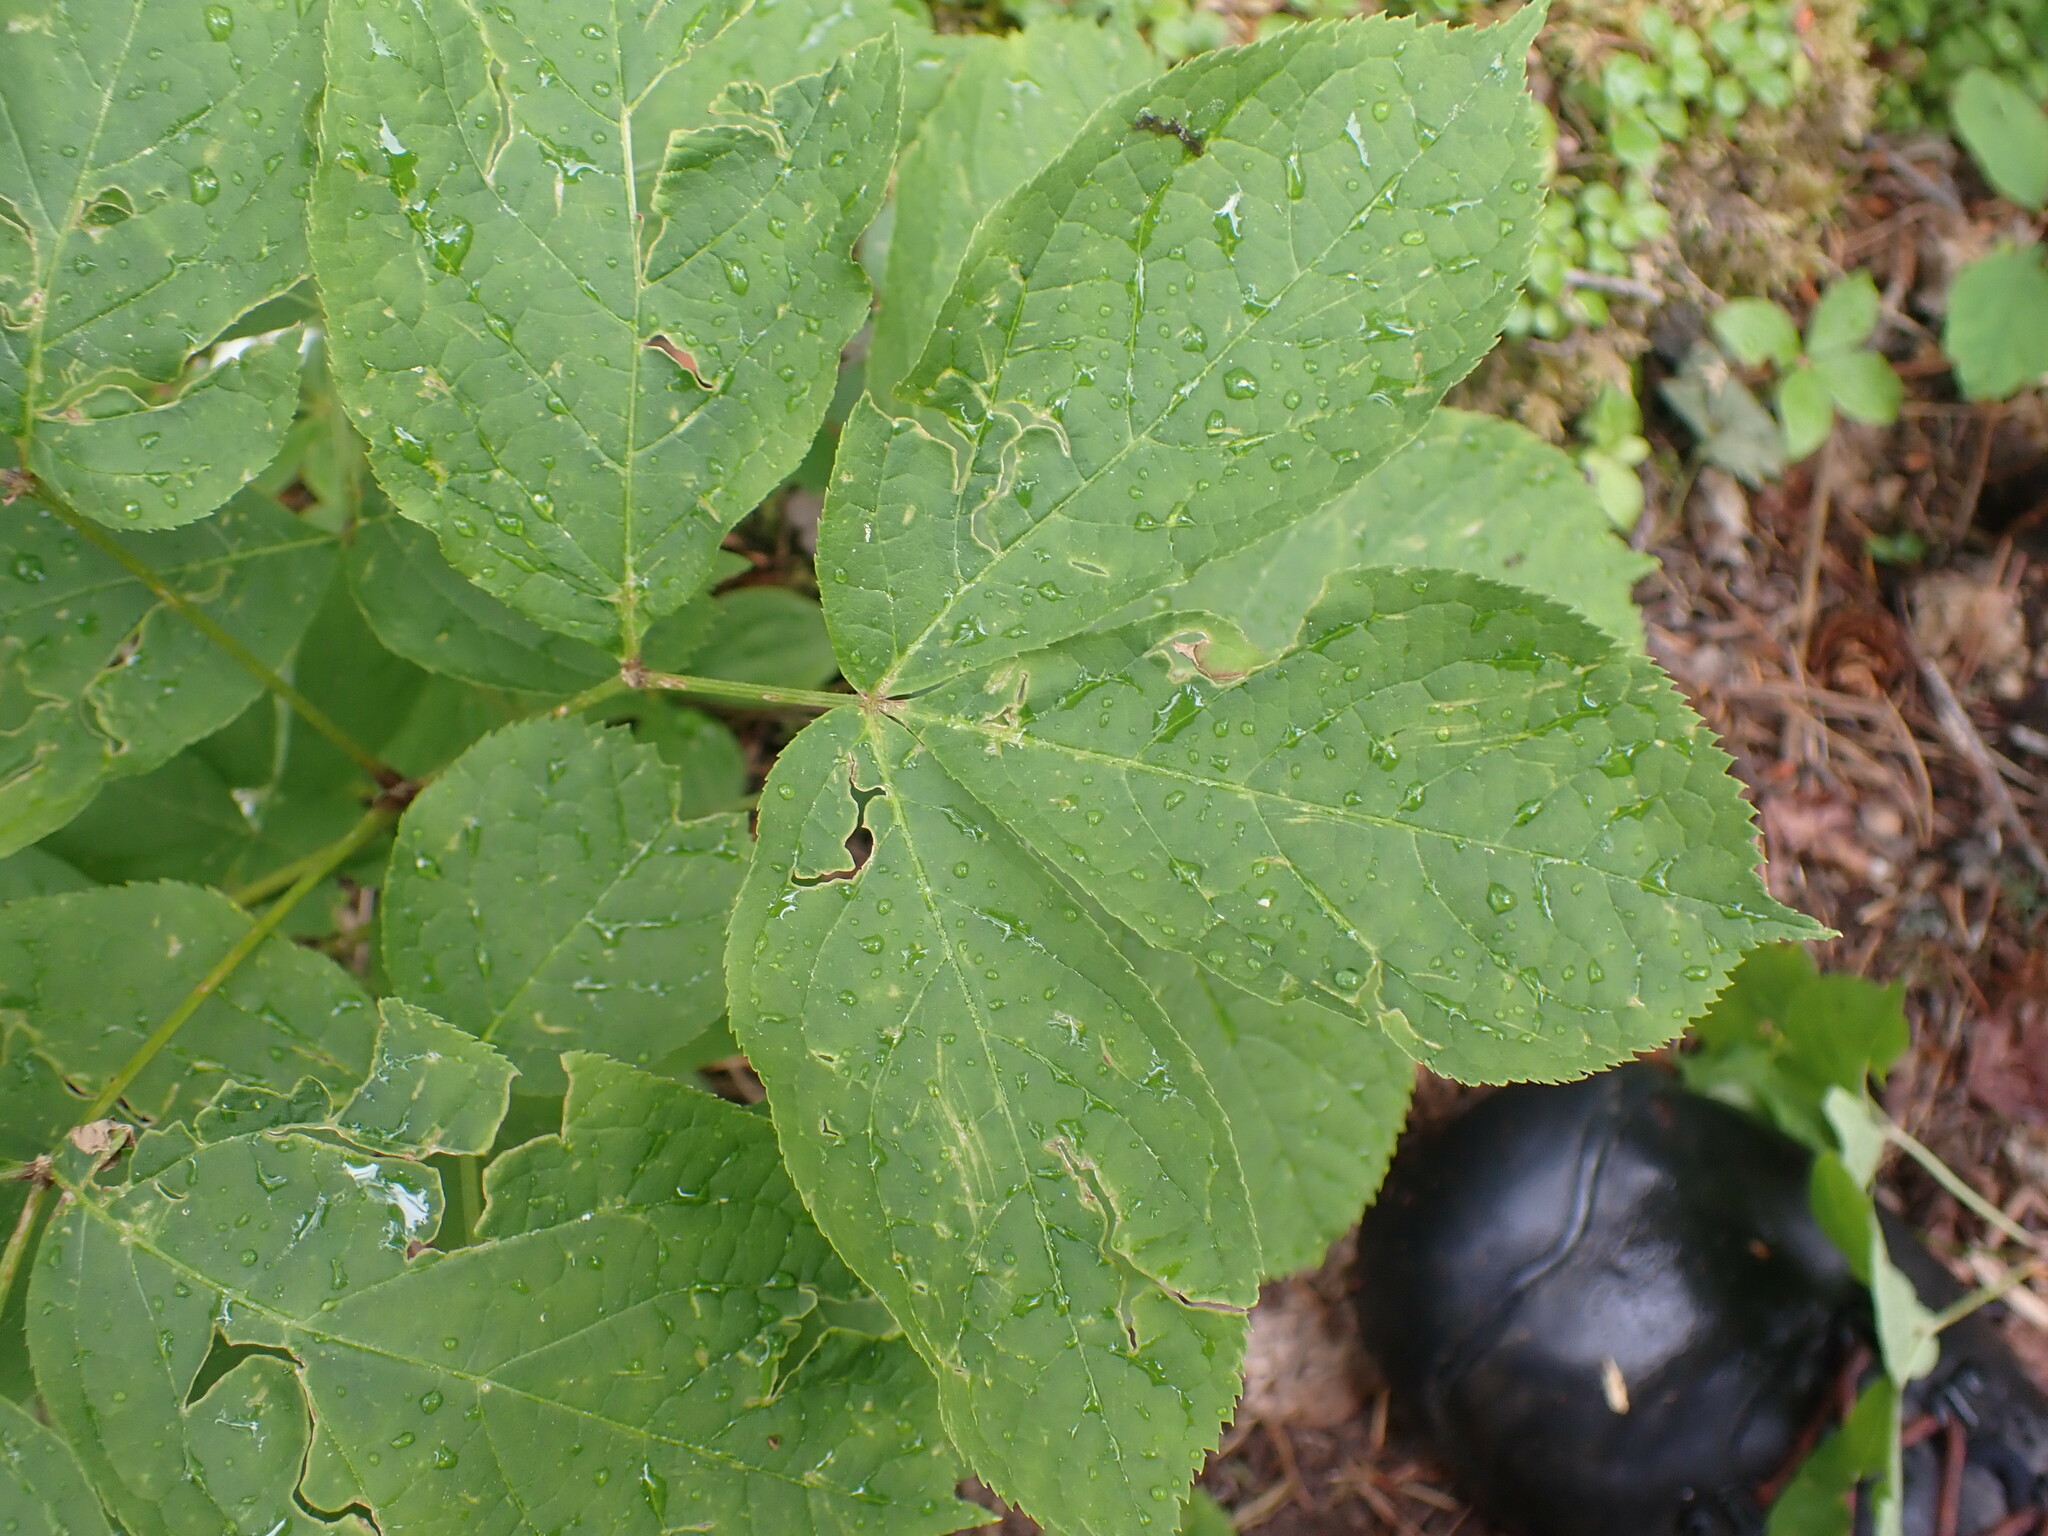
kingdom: Plantae
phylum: Tracheophyta
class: Magnoliopsida
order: Apiales
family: Araliaceae
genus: Aralia
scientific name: Aralia nudicaulis
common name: Wild sarsaparilla
